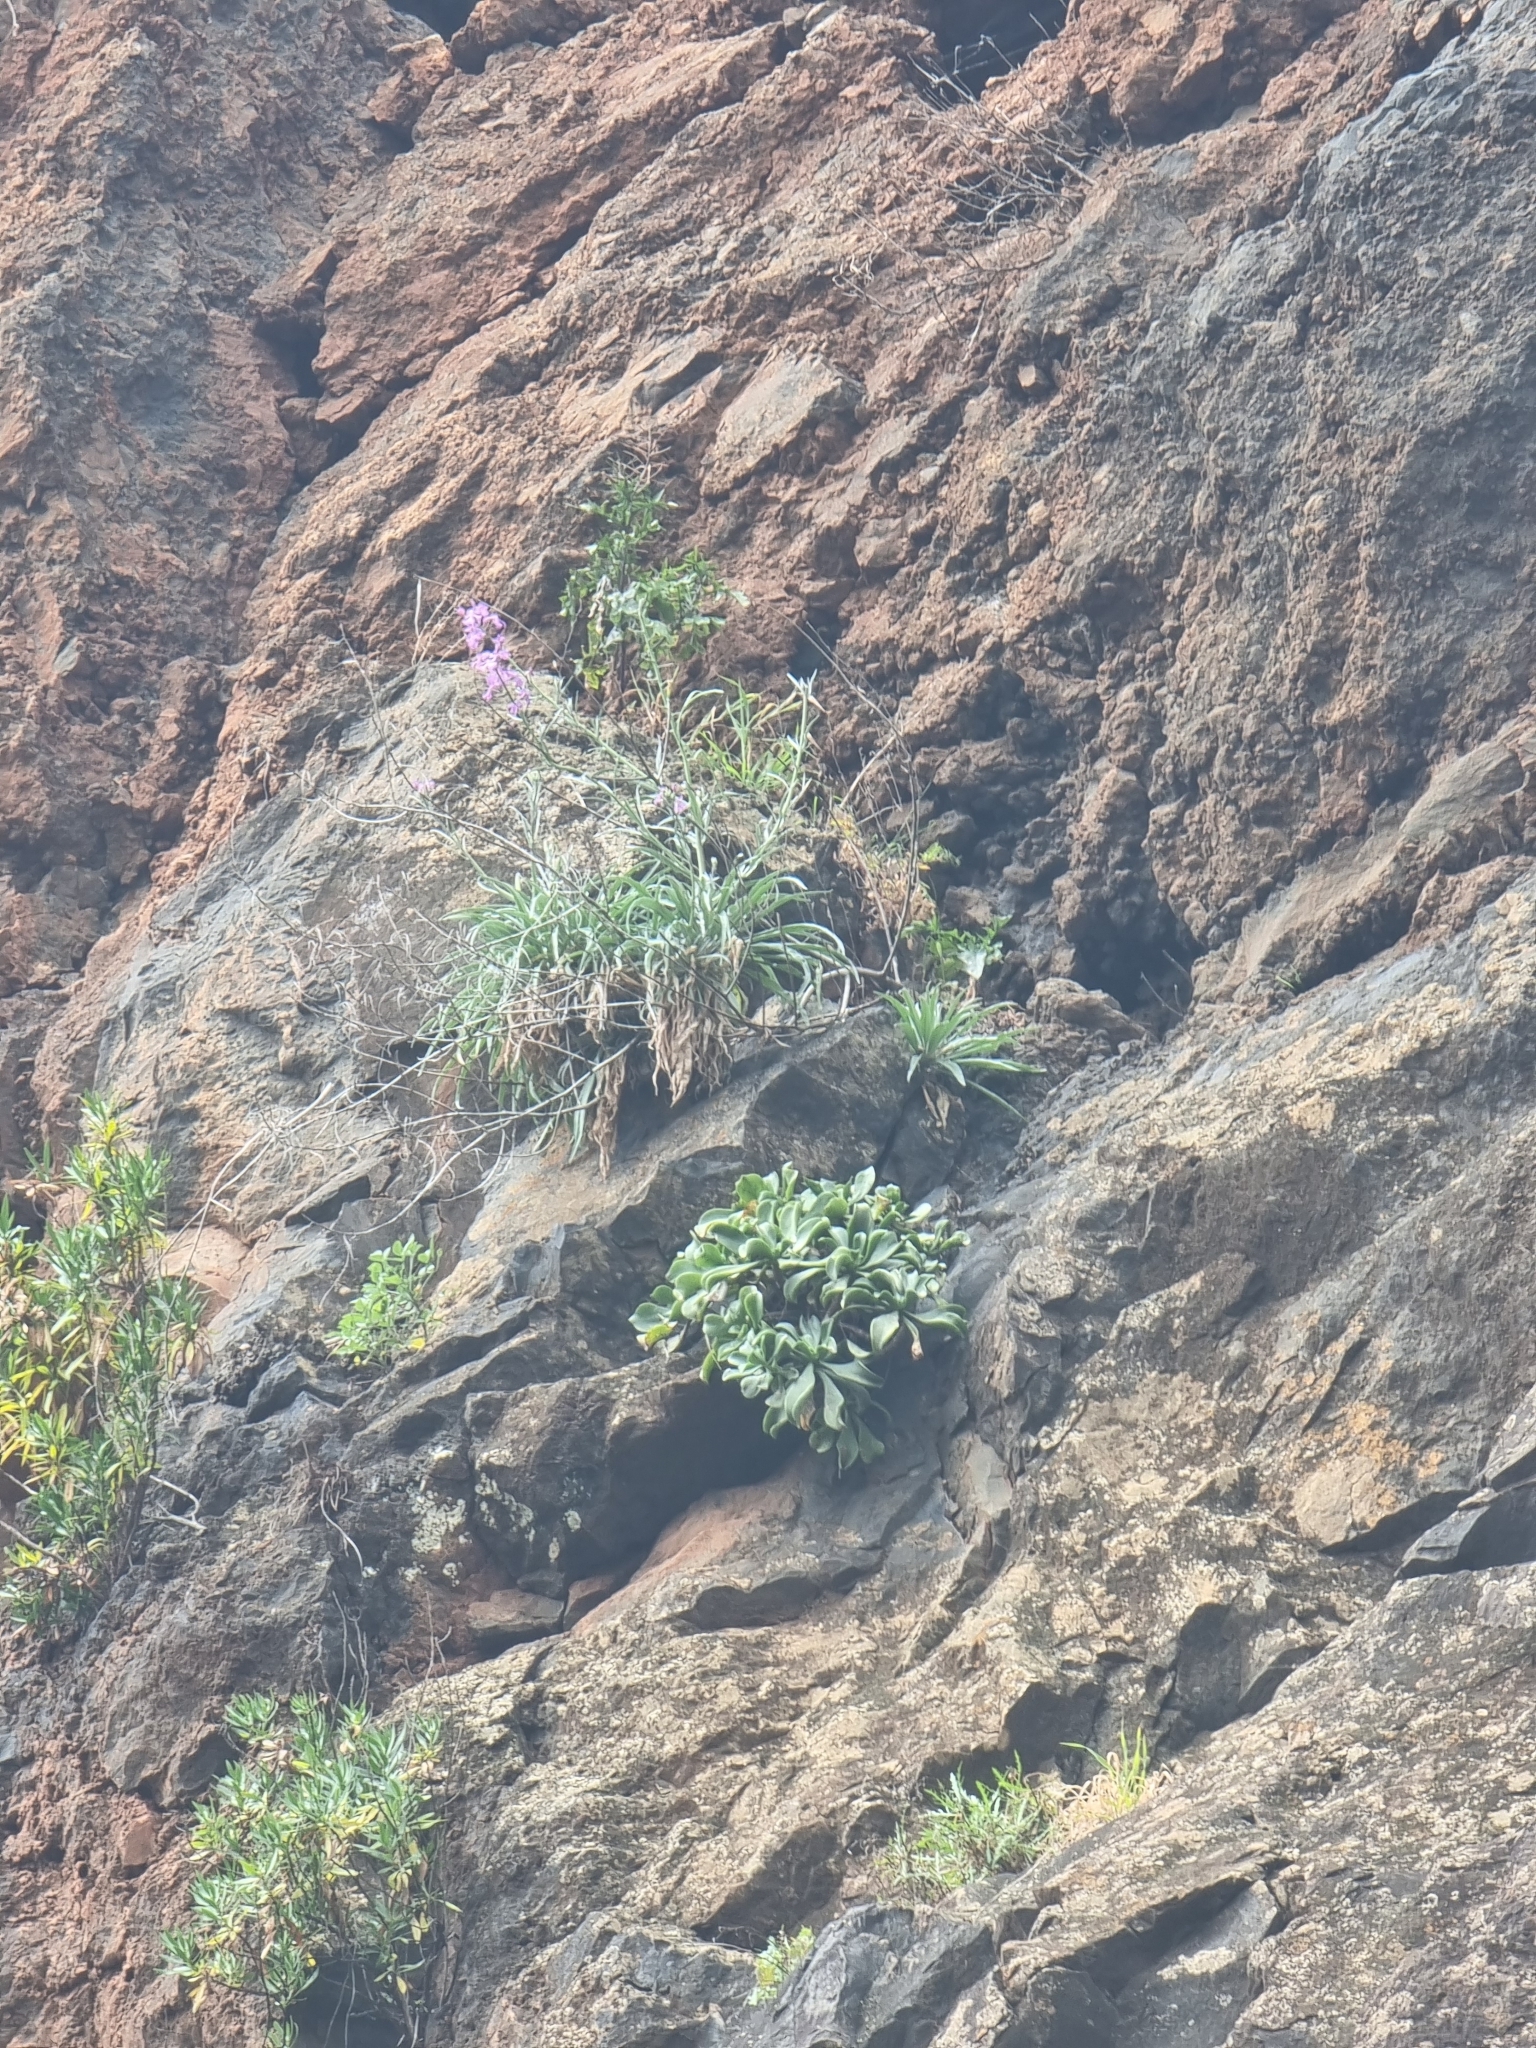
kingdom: Plantae
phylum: Tracheophyta
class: Magnoliopsida
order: Brassicales
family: Brassicaceae
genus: Matthiola
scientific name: Matthiola maderensis
